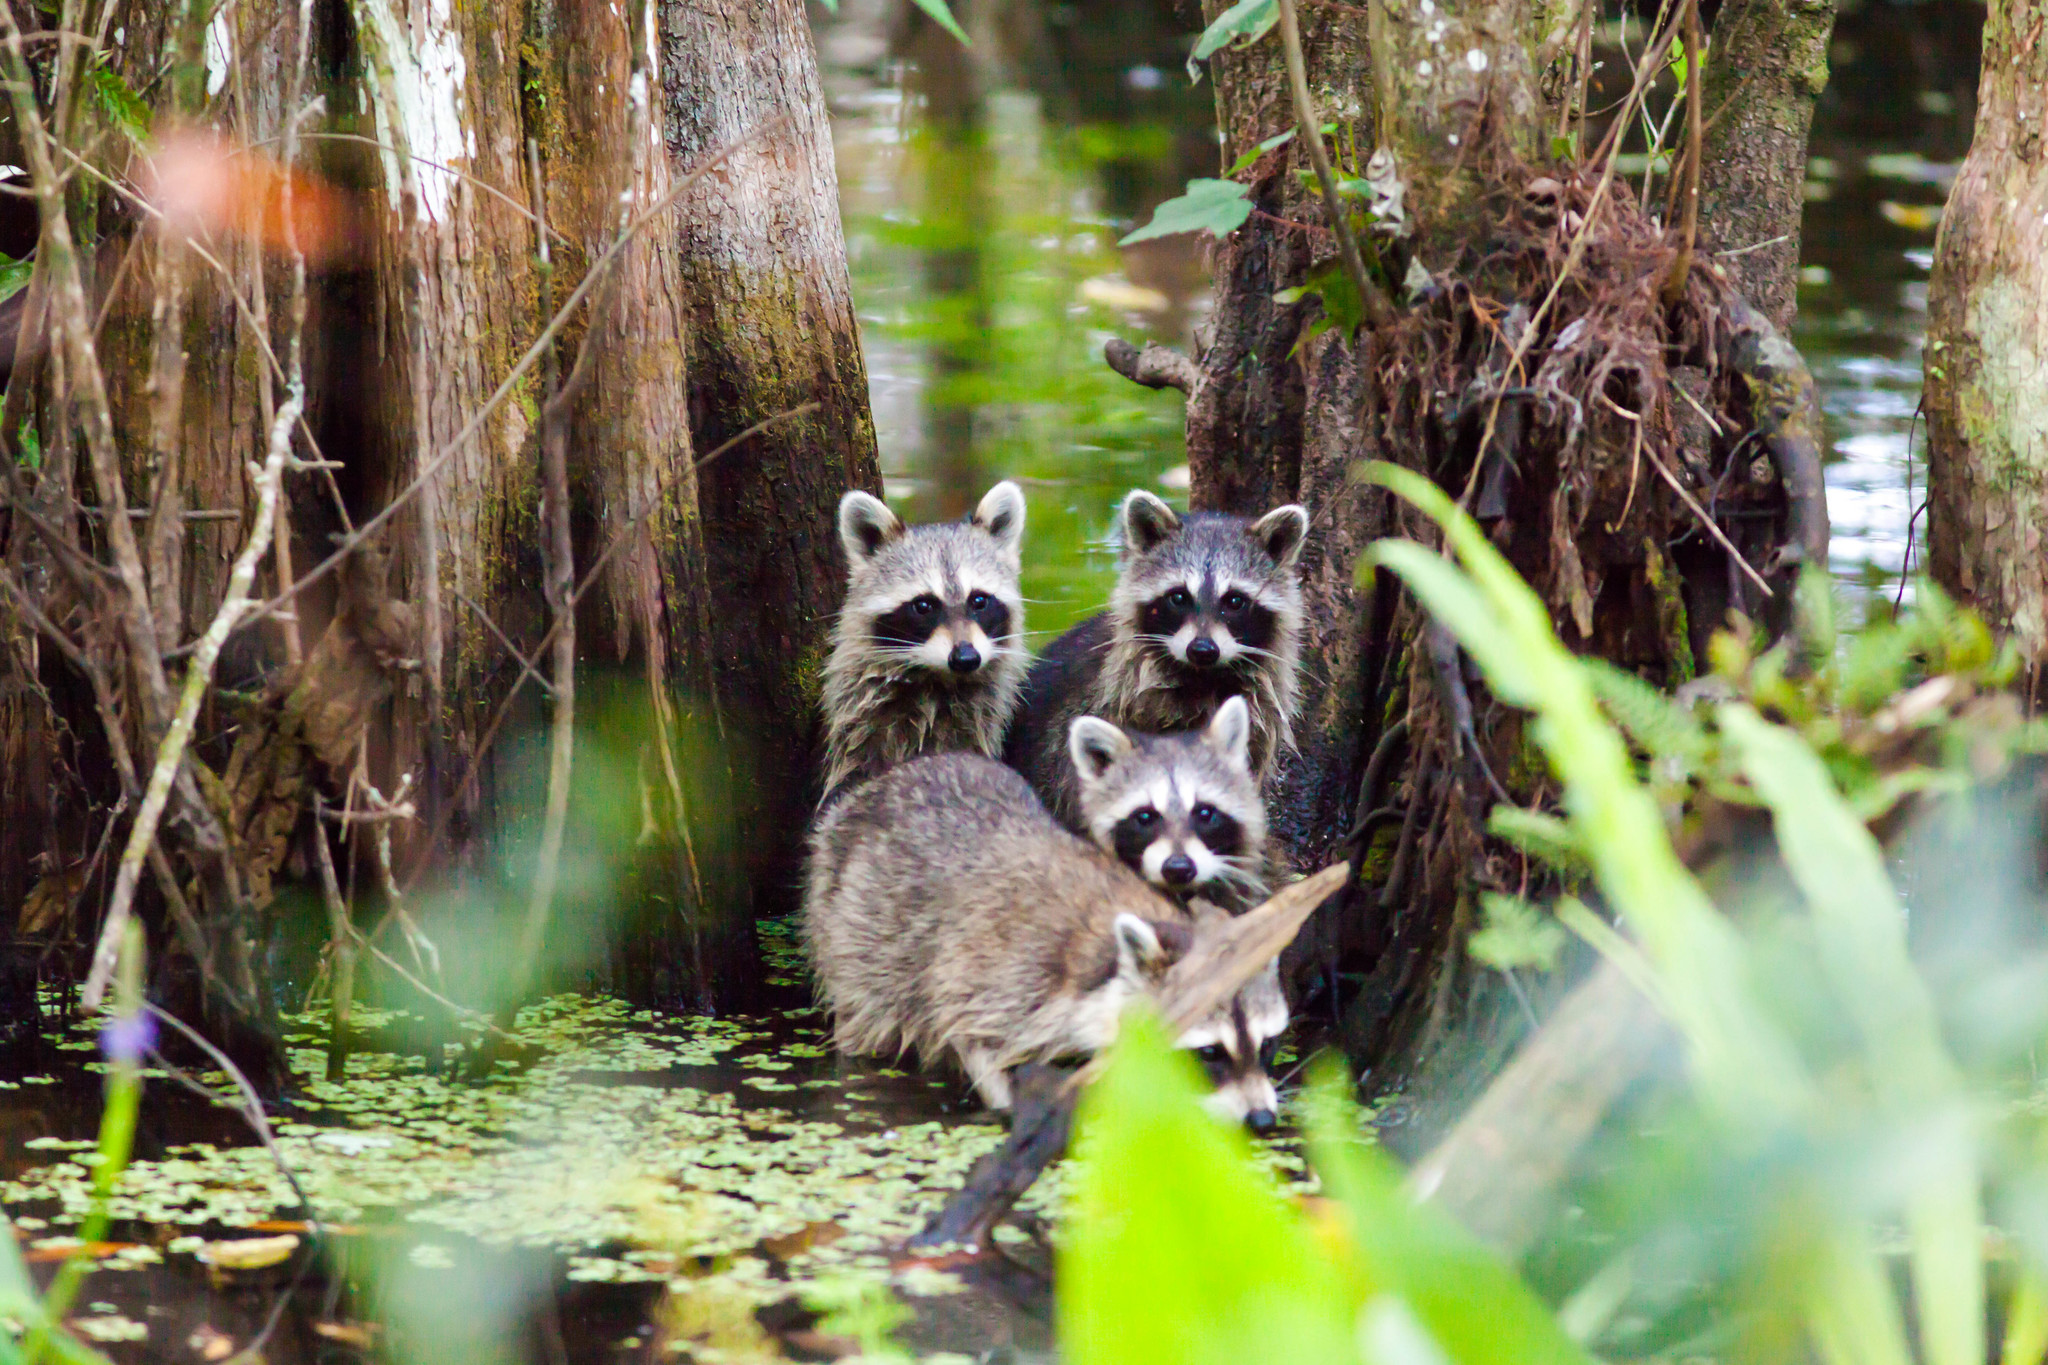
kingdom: Animalia
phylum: Chordata
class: Mammalia
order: Carnivora
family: Procyonidae
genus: Procyon
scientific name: Procyon lotor
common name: Raccoon
